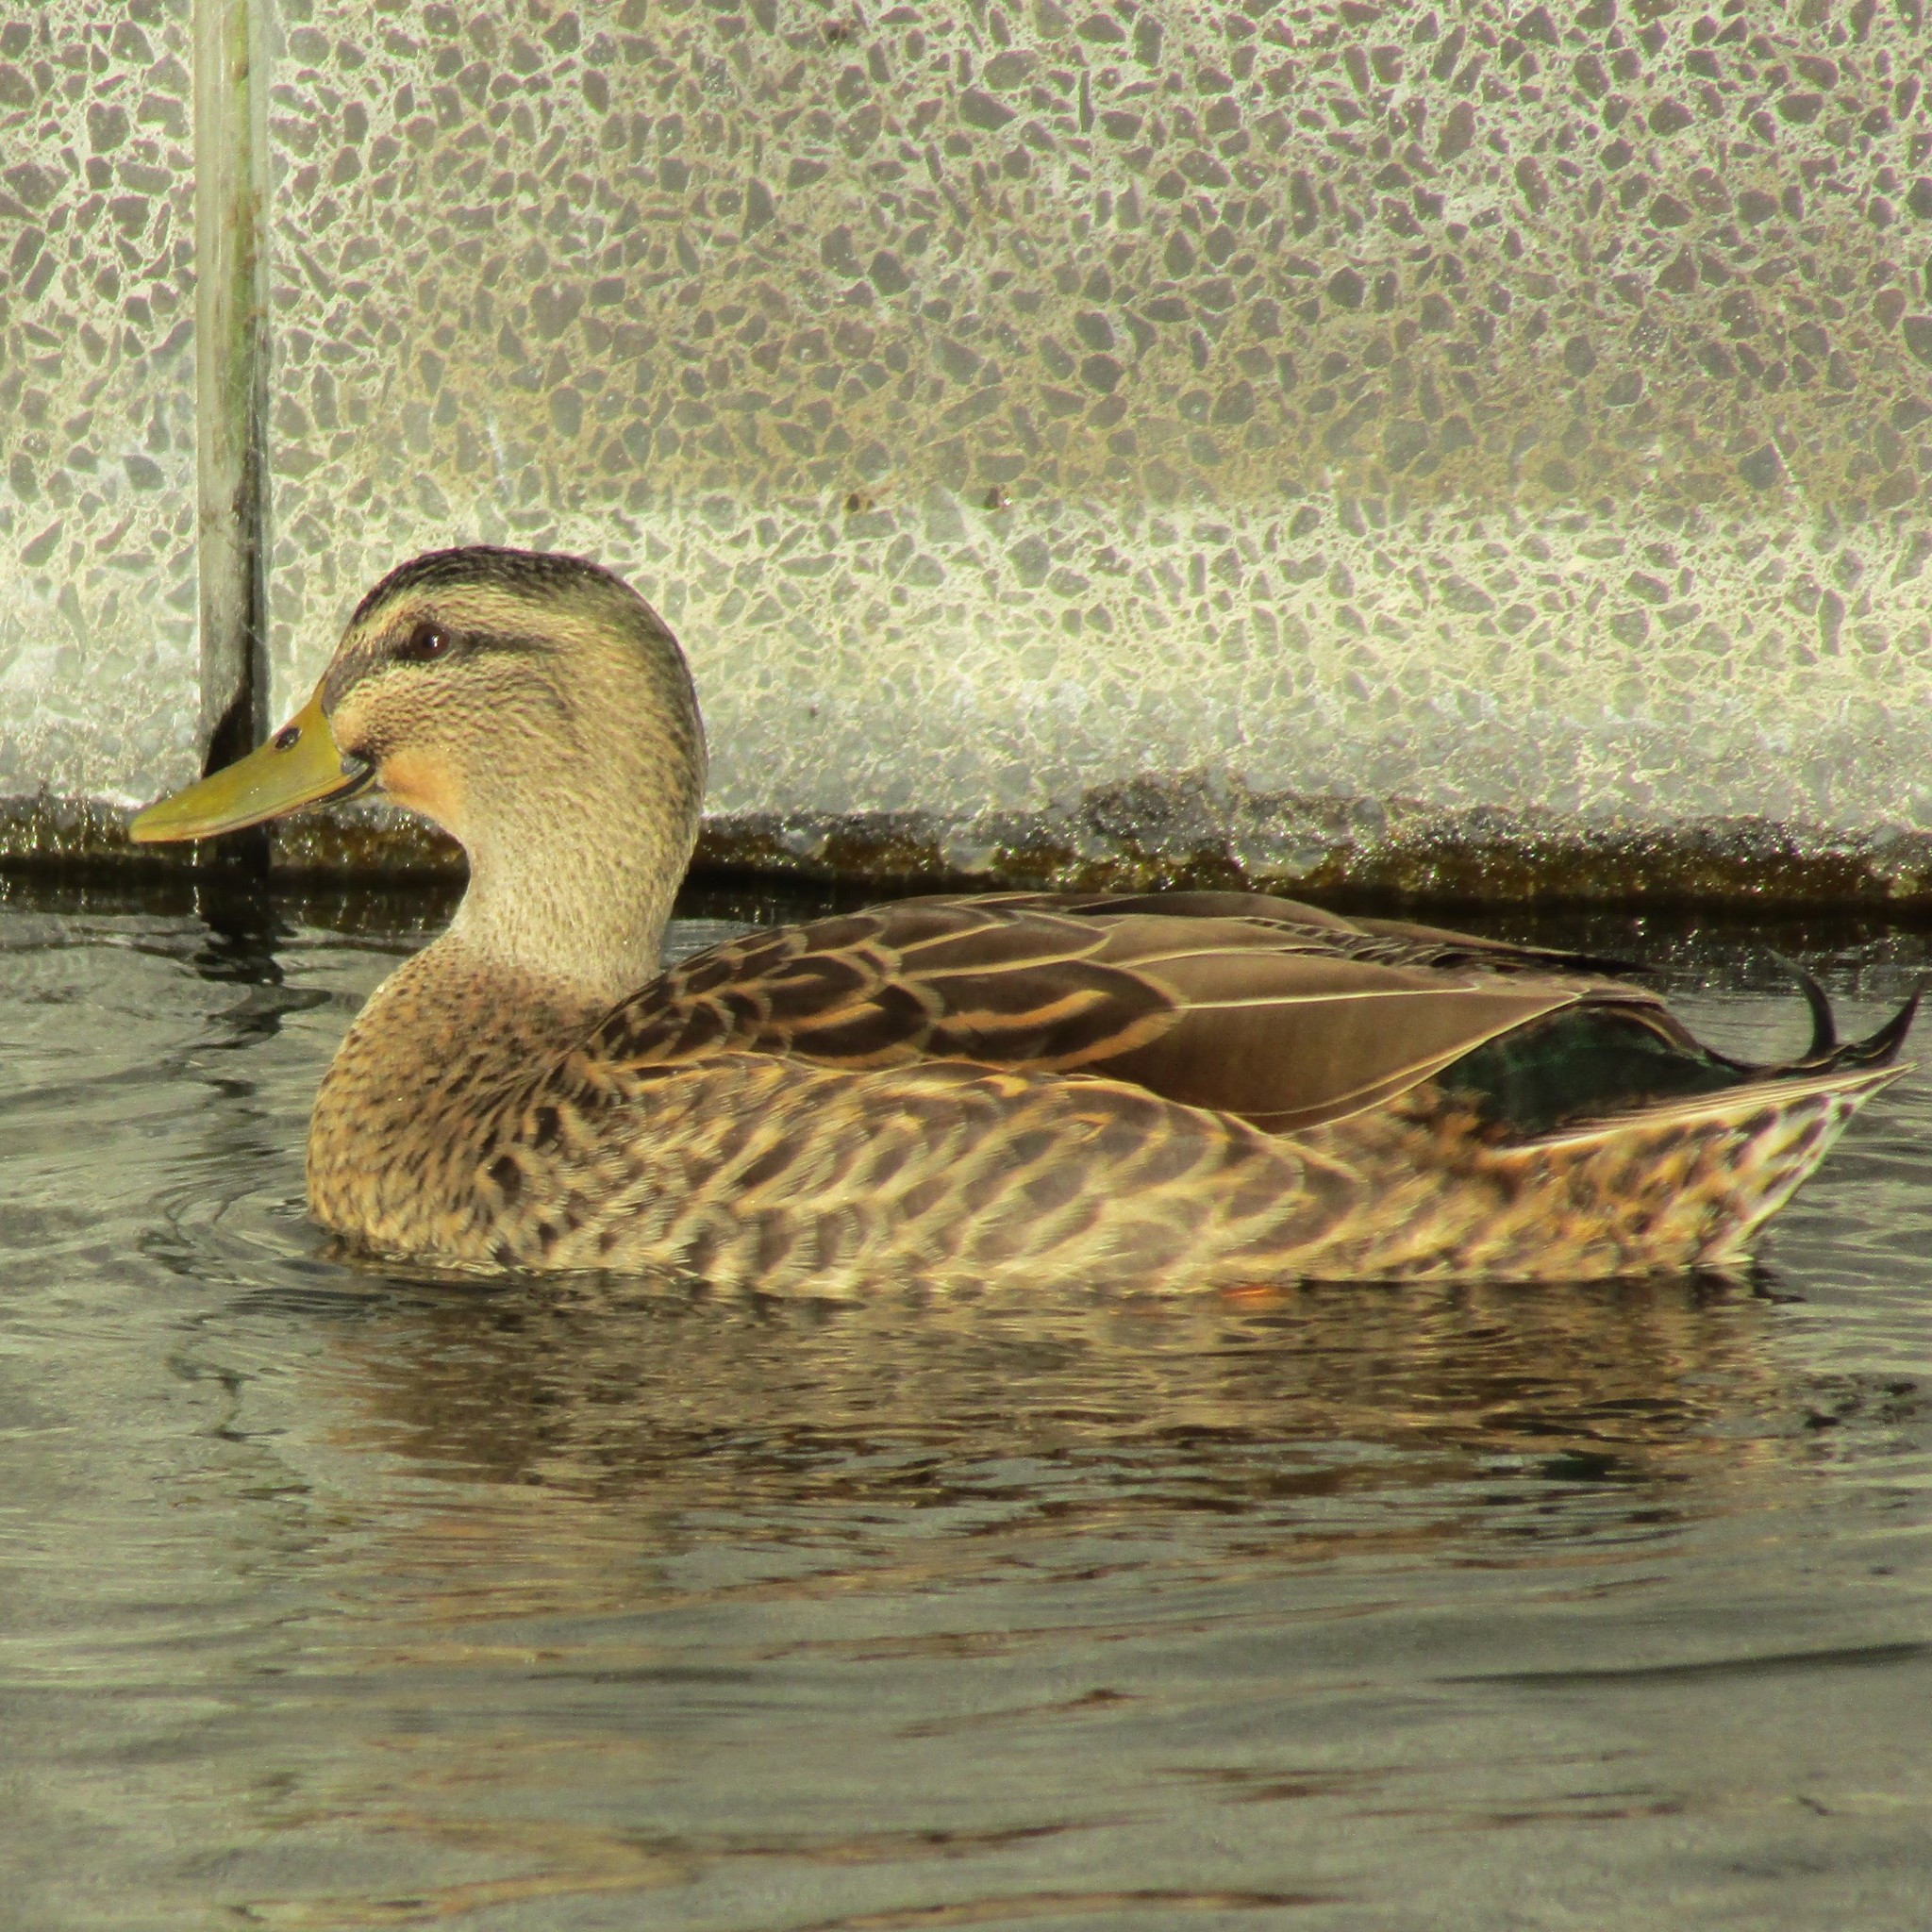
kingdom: Animalia
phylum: Chordata
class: Aves
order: Anseriformes
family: Anatidae
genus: Anas
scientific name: Anas
